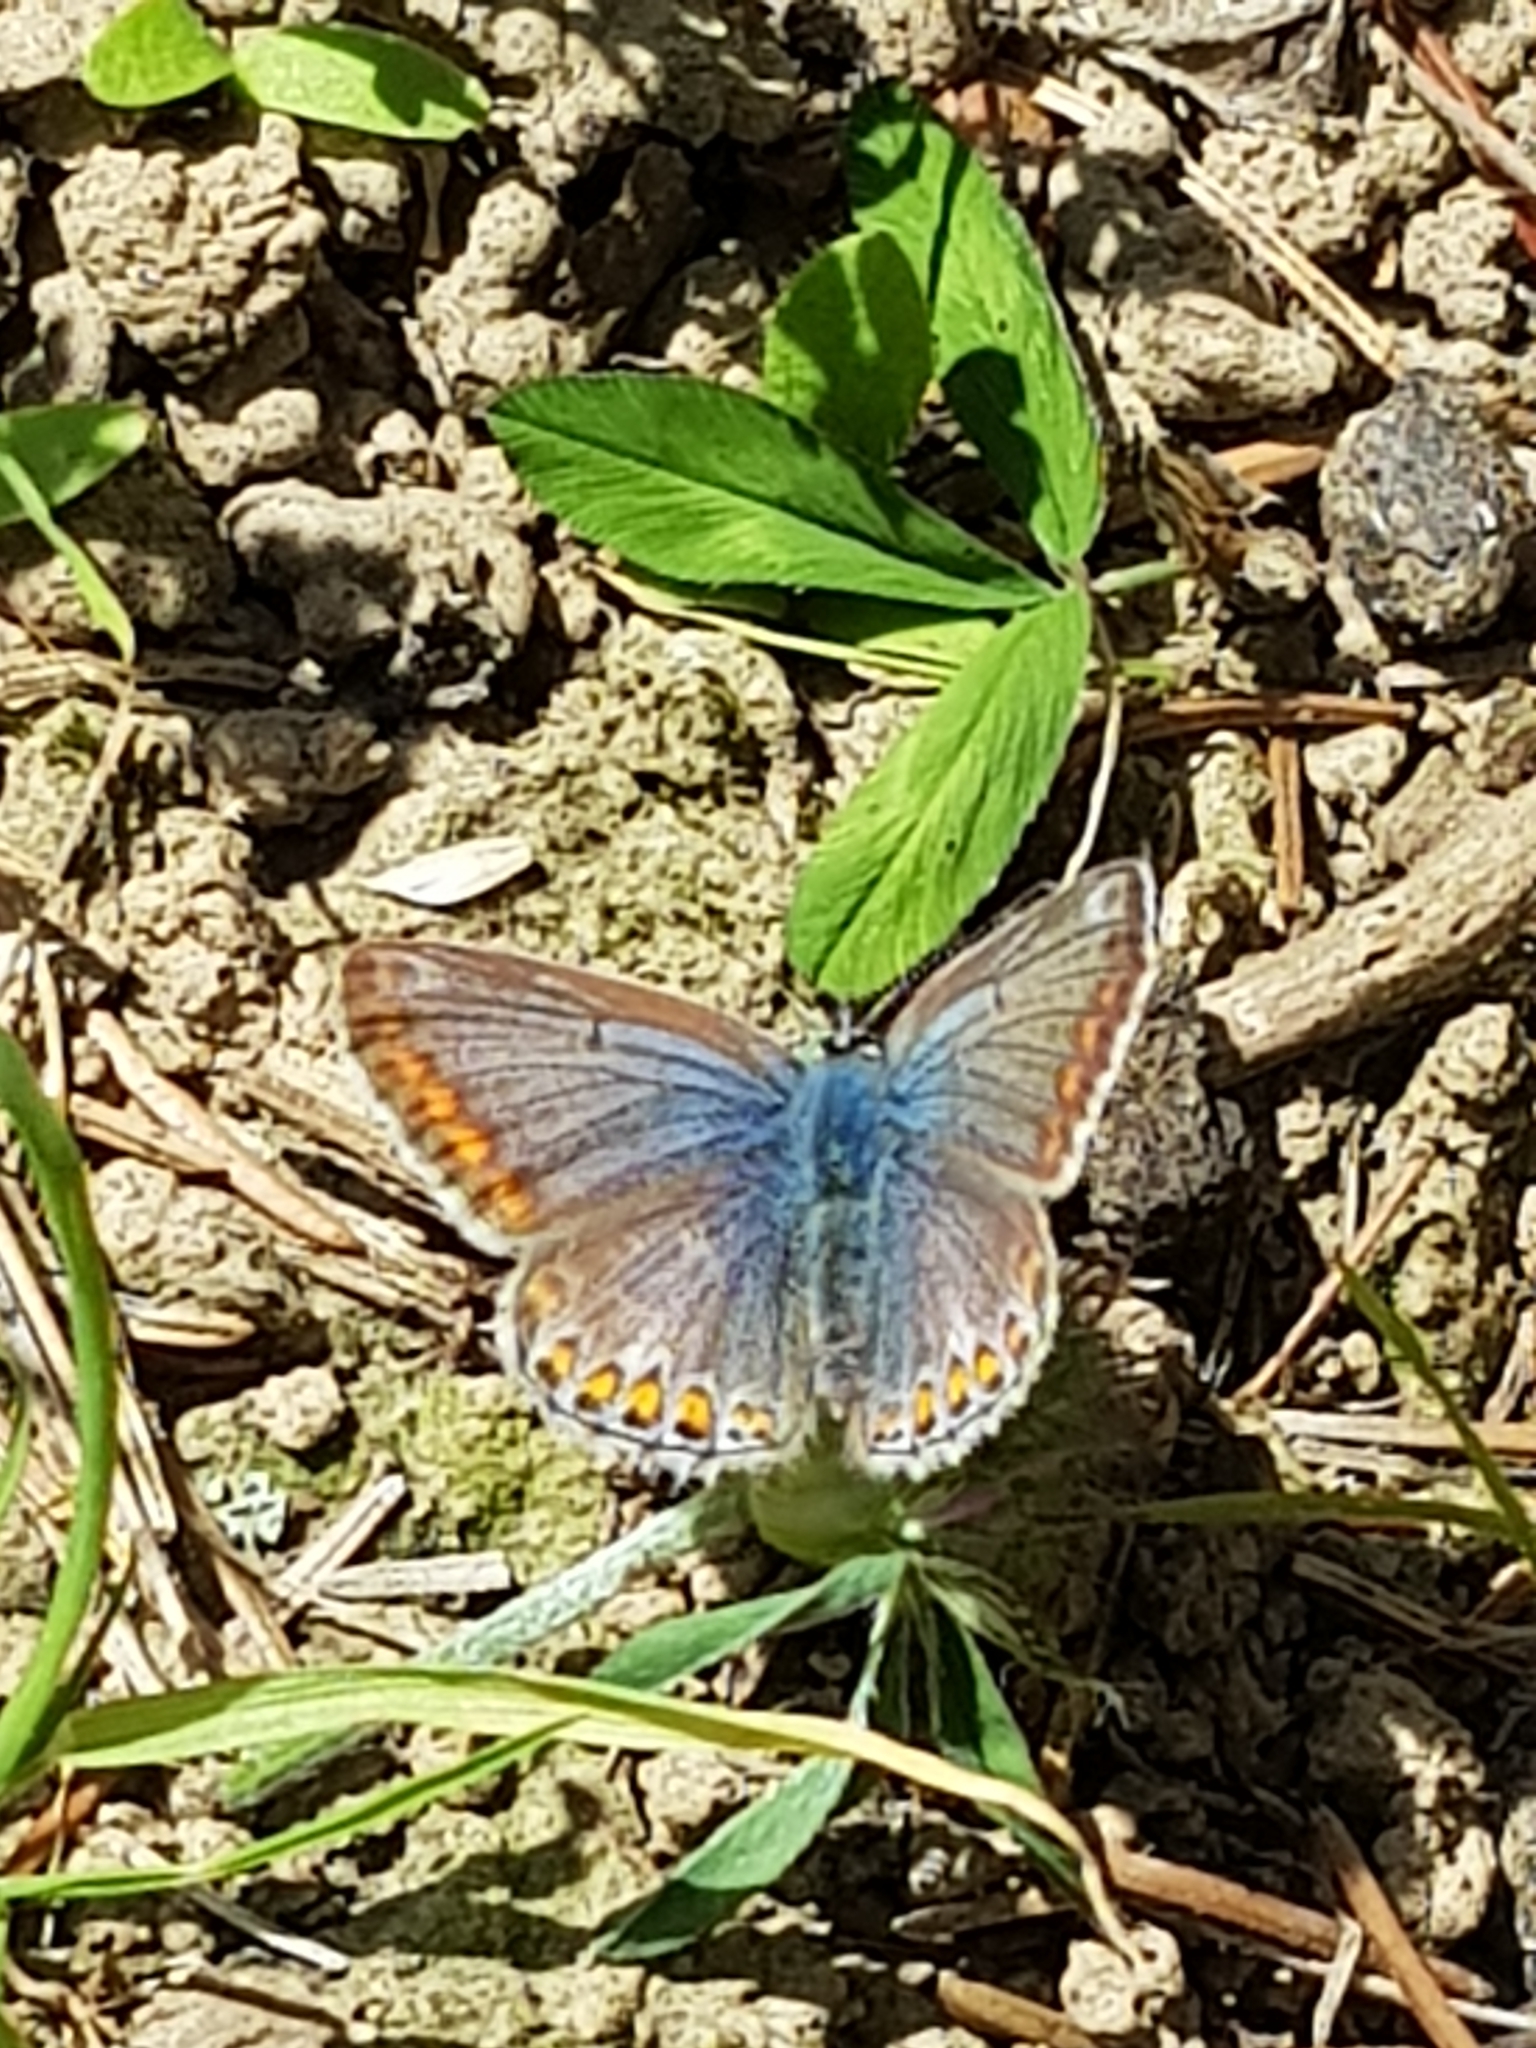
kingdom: Animalia
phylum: Arthropoda
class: Insecta
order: Lepidoptera
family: Lycaenidae
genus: Polyommatus
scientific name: Polyommatus icarus
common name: Common blue
